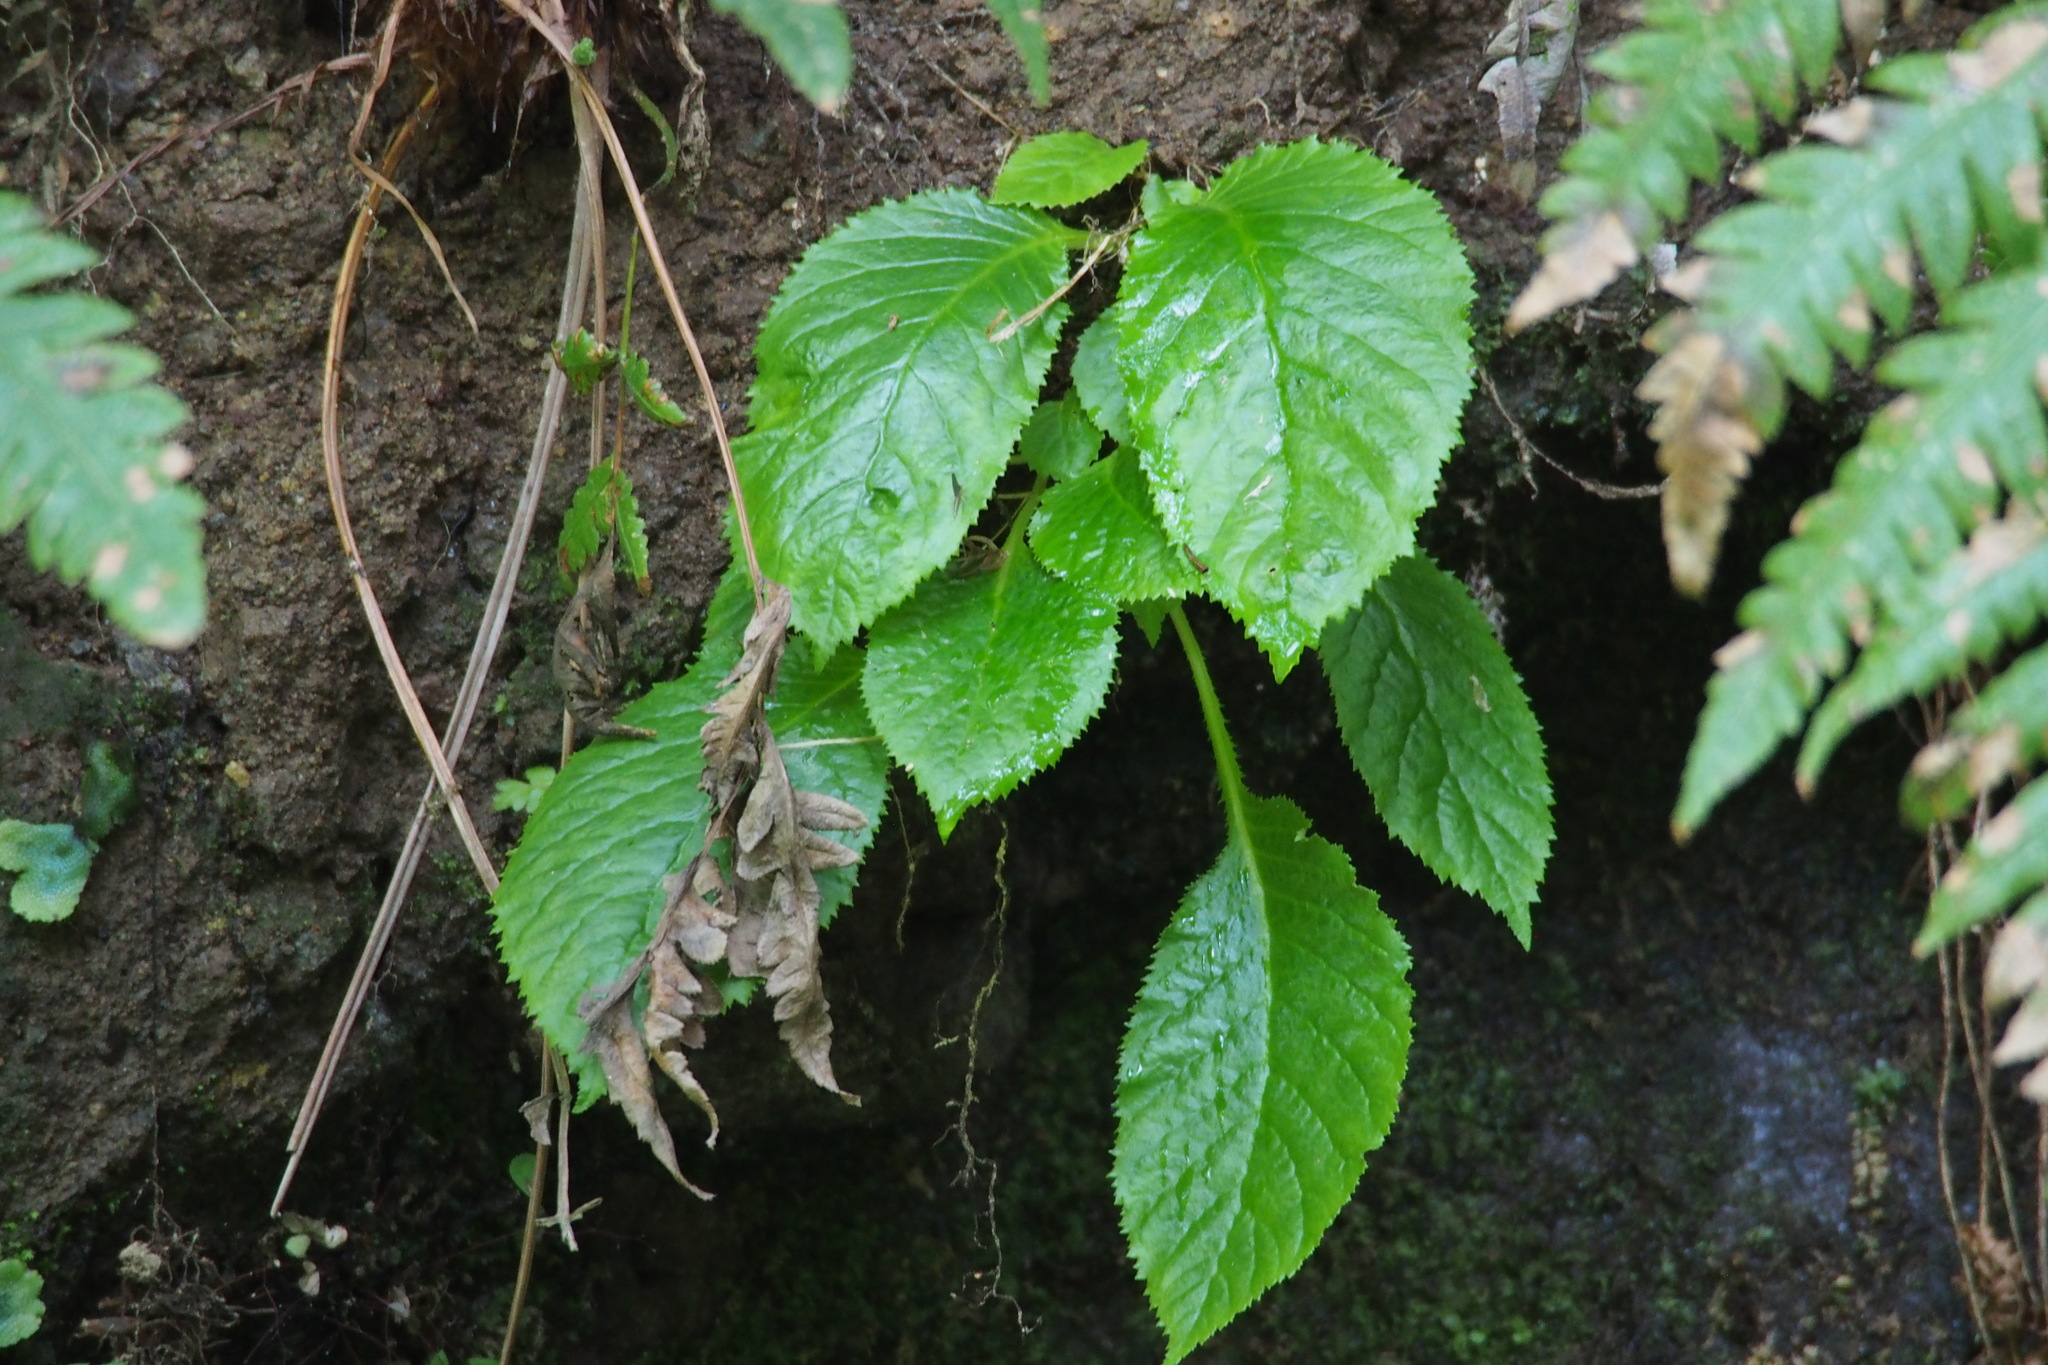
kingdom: Plantae
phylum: Tracheophyta
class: Magnoliopsida
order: Lamiales
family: Gesneriaceae
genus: Conandron
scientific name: Conandron ramondioides
